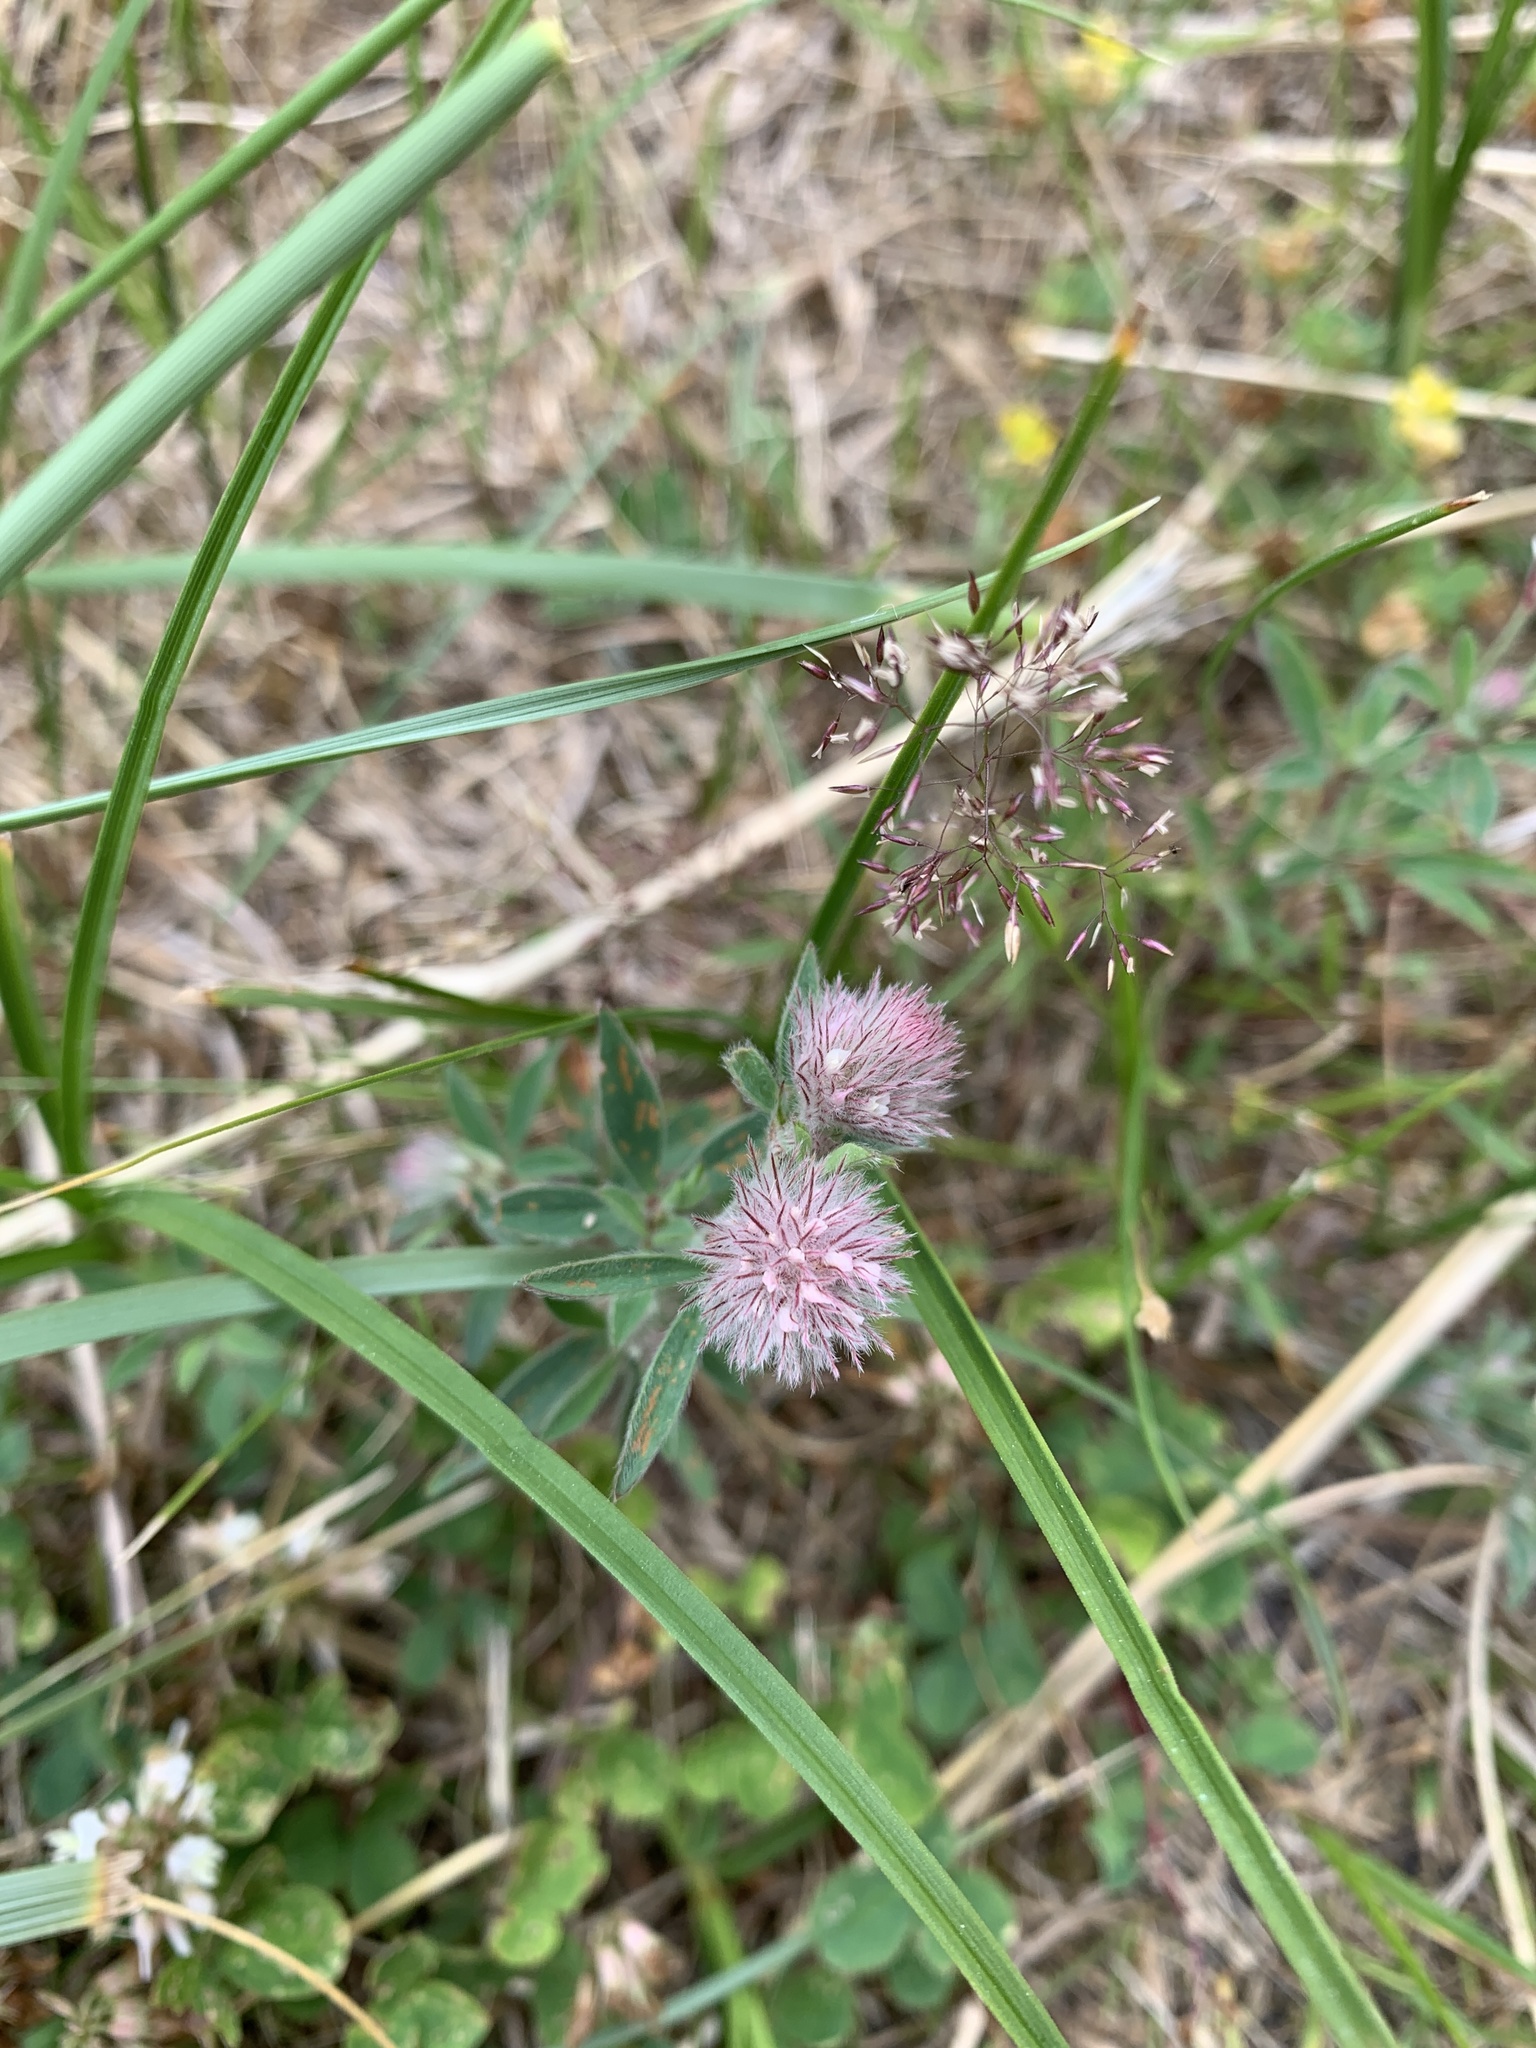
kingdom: Plantae
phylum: Tracheophyta
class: Magnoliopsida
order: Fabales
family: Fabaceae
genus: Trifolium
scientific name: Trifolium arvense
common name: Hare's-foot clover
